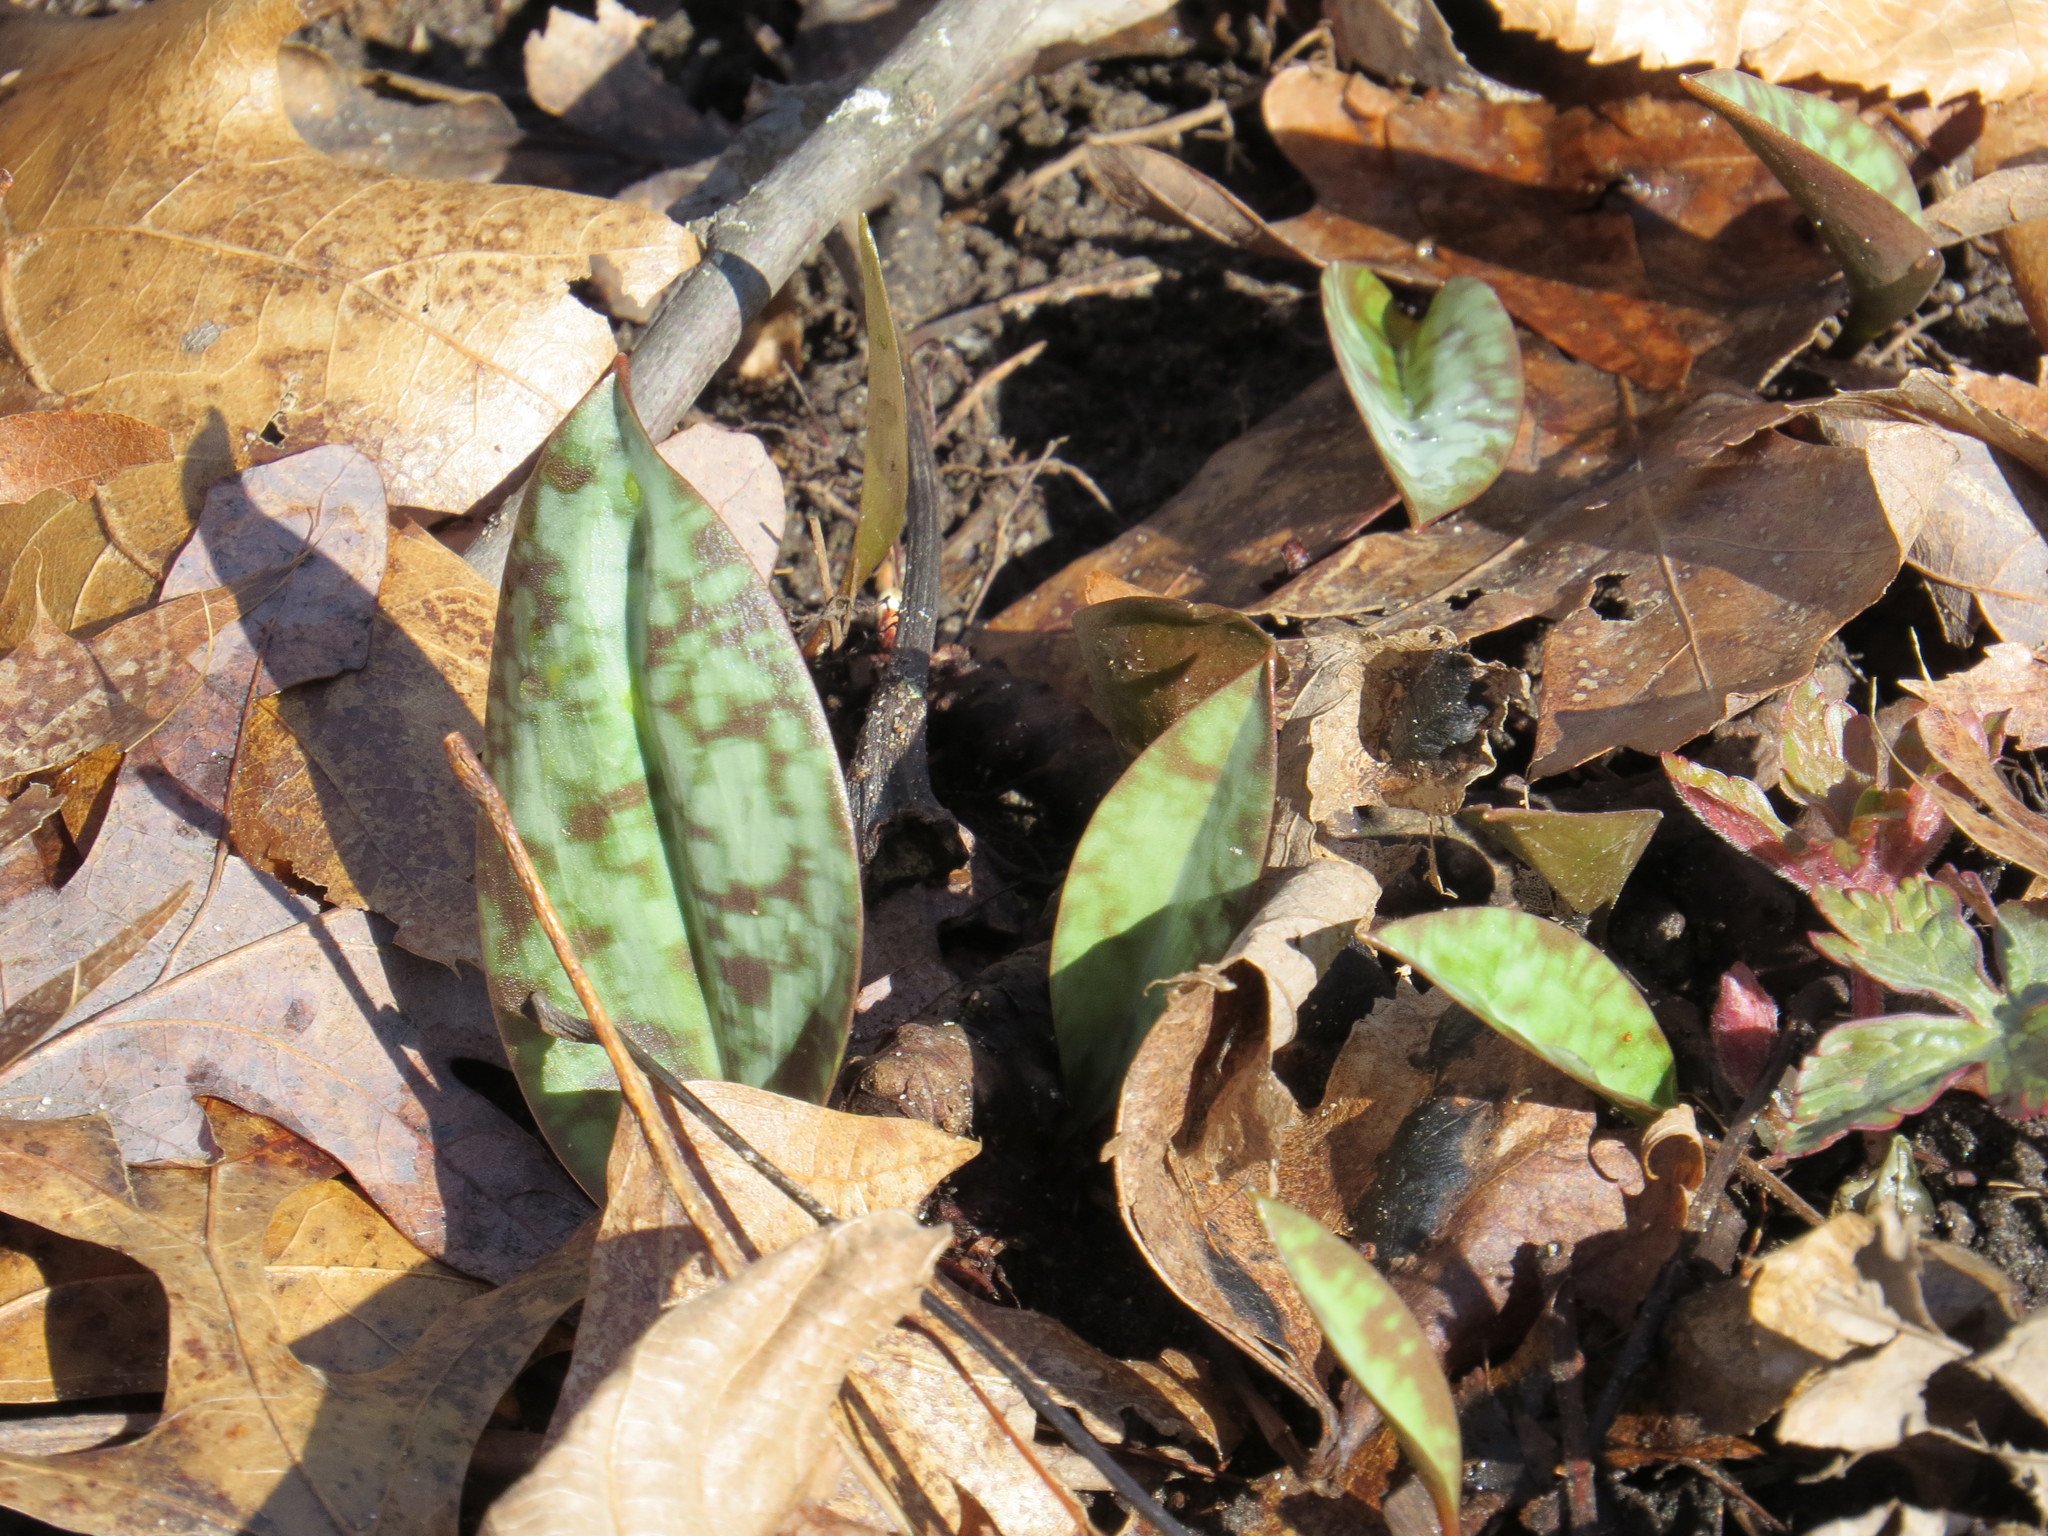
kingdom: Plantae
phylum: Tracheophyta
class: Liliopsida
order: Liliales
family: Liliaceae
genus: Erythronium
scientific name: Erythronium americanum
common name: Yellow adder's-tongue
